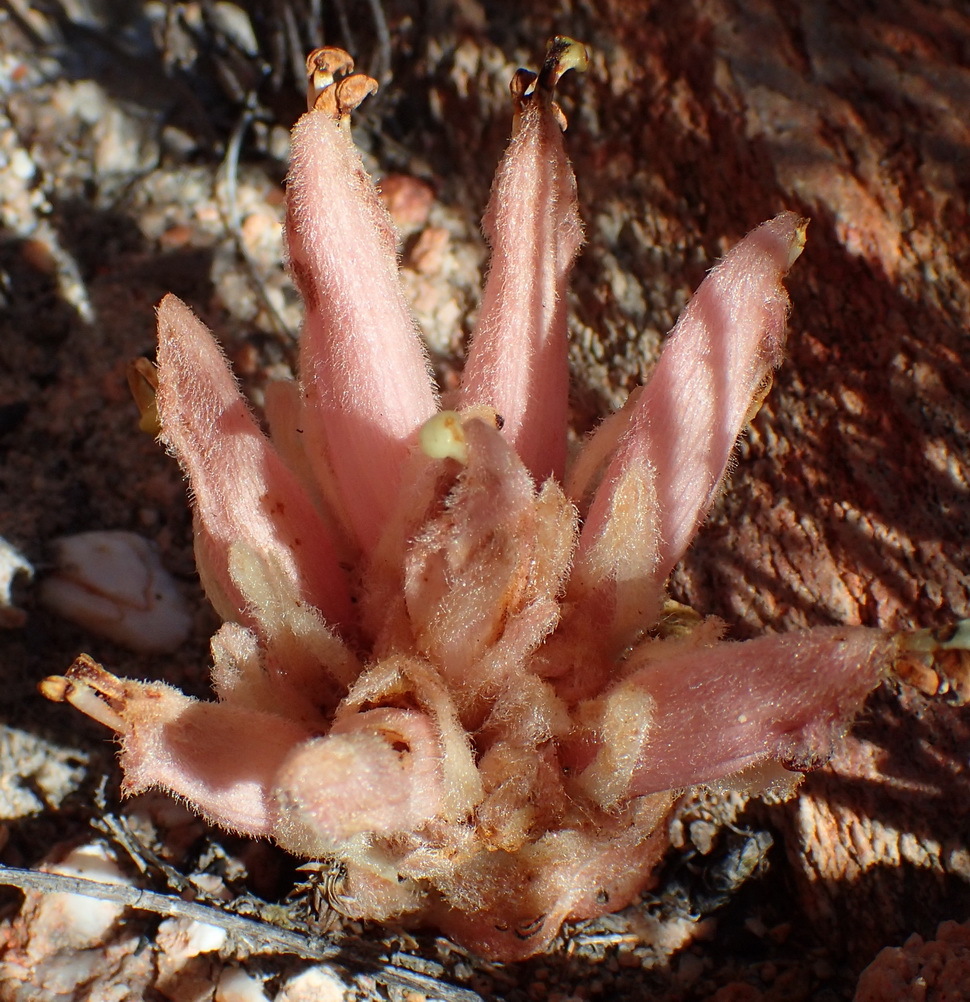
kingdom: Plantae
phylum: Tracheophyta
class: Magnoliopsida
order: Lamiales
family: Orobanchaceae
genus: Hyobanche
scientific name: Hyobanche sanguinea
